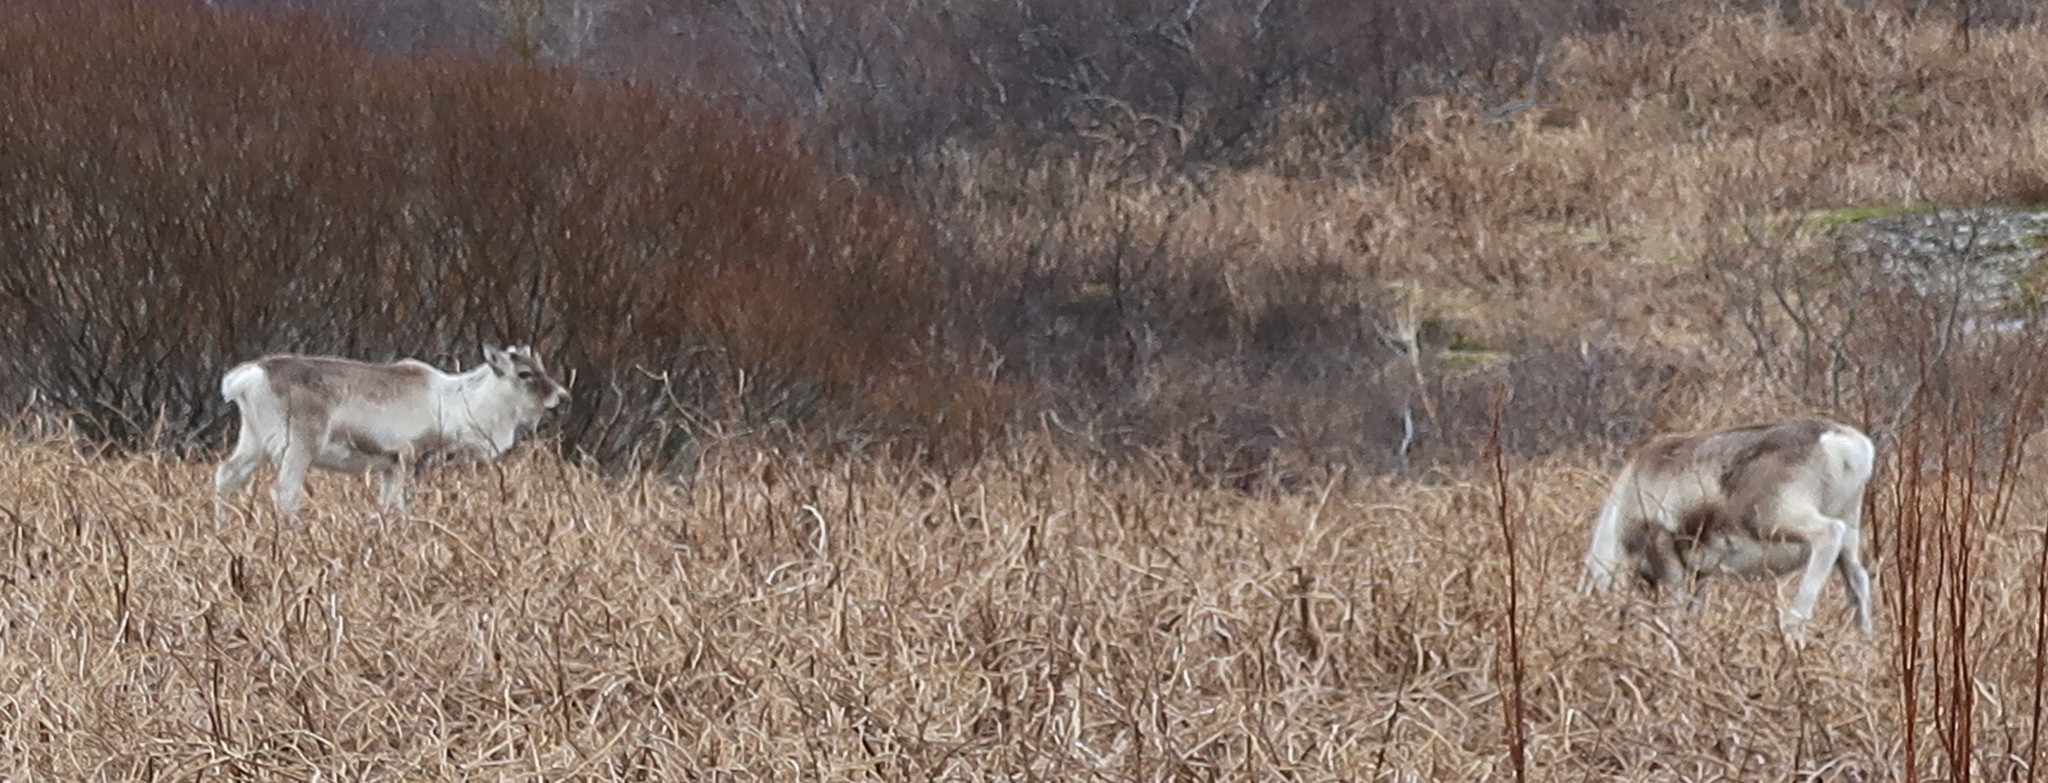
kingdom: Animalia
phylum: Chordata
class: Mammalia
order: Artiodactyla
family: Cervidae
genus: Rangifer
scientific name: Rangifer tarandus
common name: Reindeer
